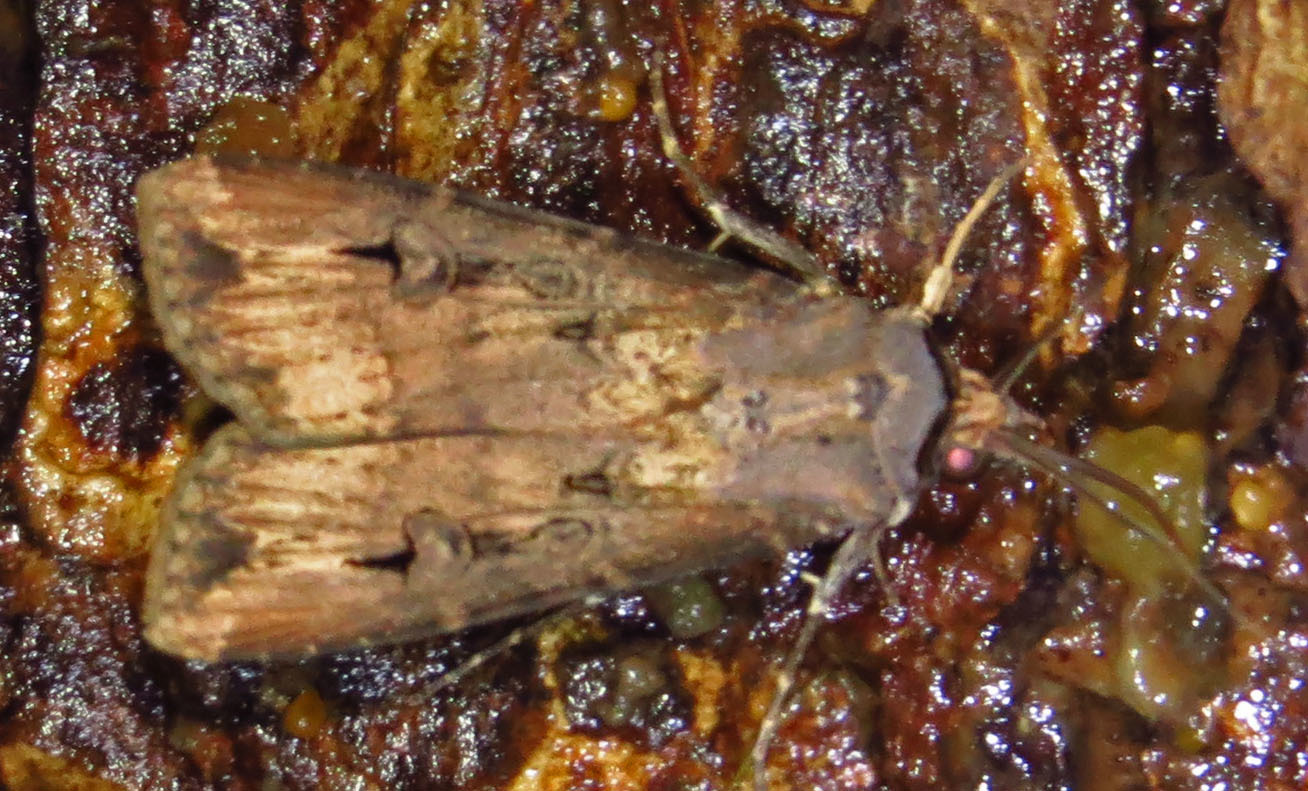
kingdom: Animalia
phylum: Arthropoda
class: Insecta
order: Lepidoptera
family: Noctuidae
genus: Agrotis
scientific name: Agrotis ipsilon
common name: Dark sword-grass
